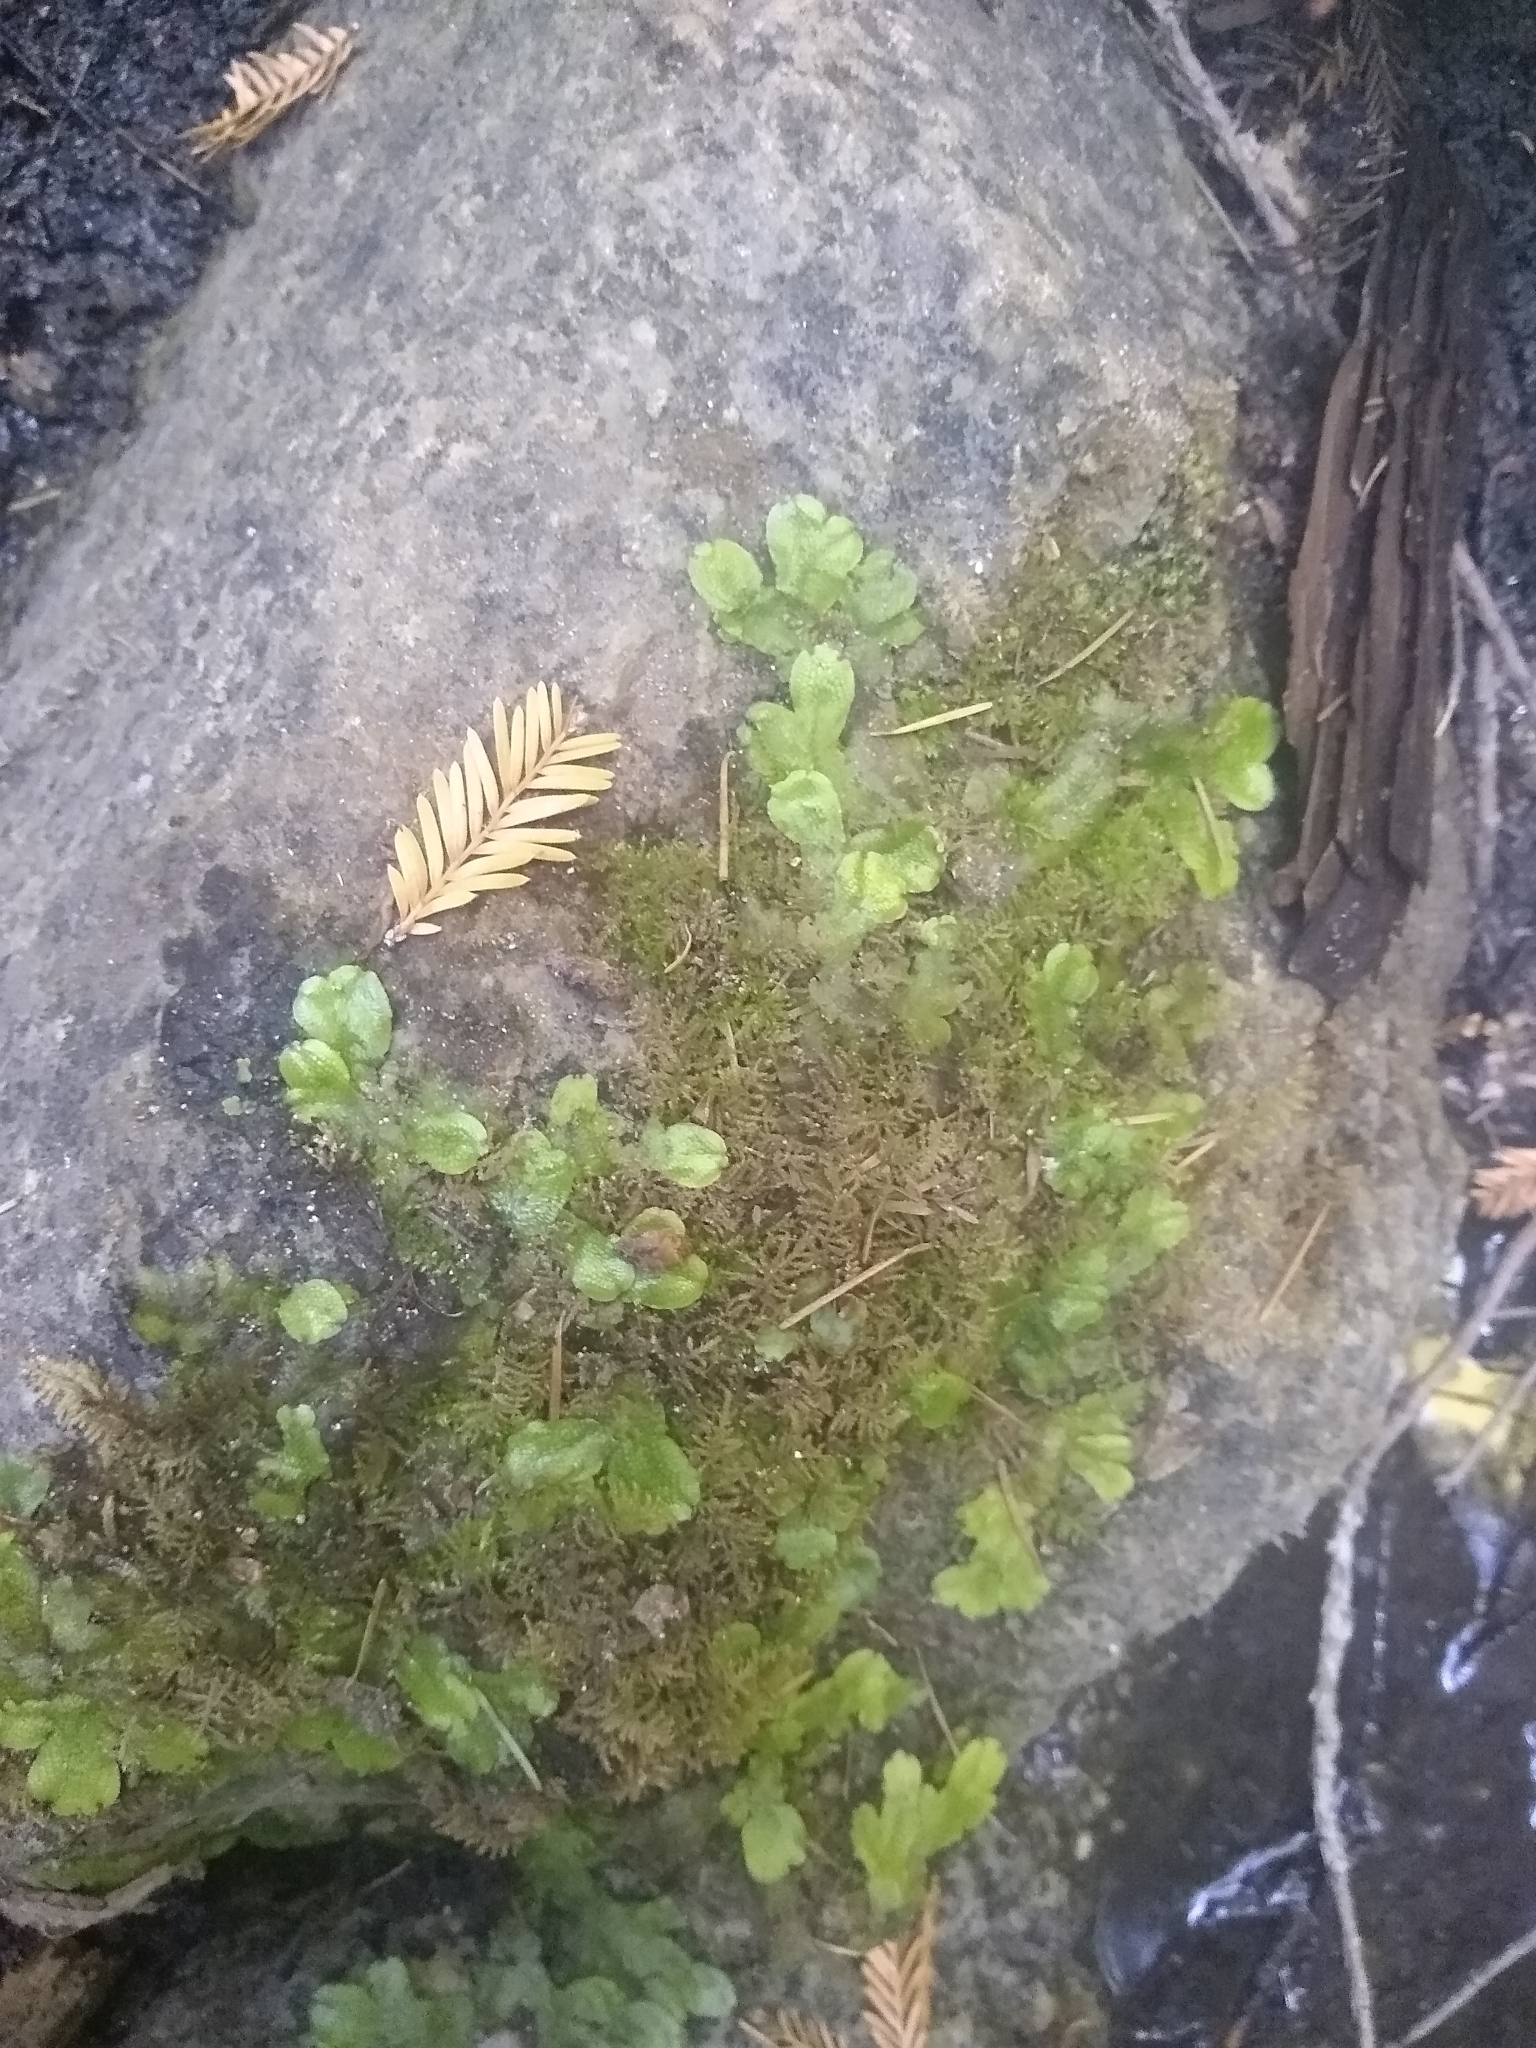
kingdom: Plantae
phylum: Marchantiophyta
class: Marchantiopsida
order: Marchantiales
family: Conocephalaceae
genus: Conocephalum
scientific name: Conocephalum salebrosum
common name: Cat-tongue liverwort
